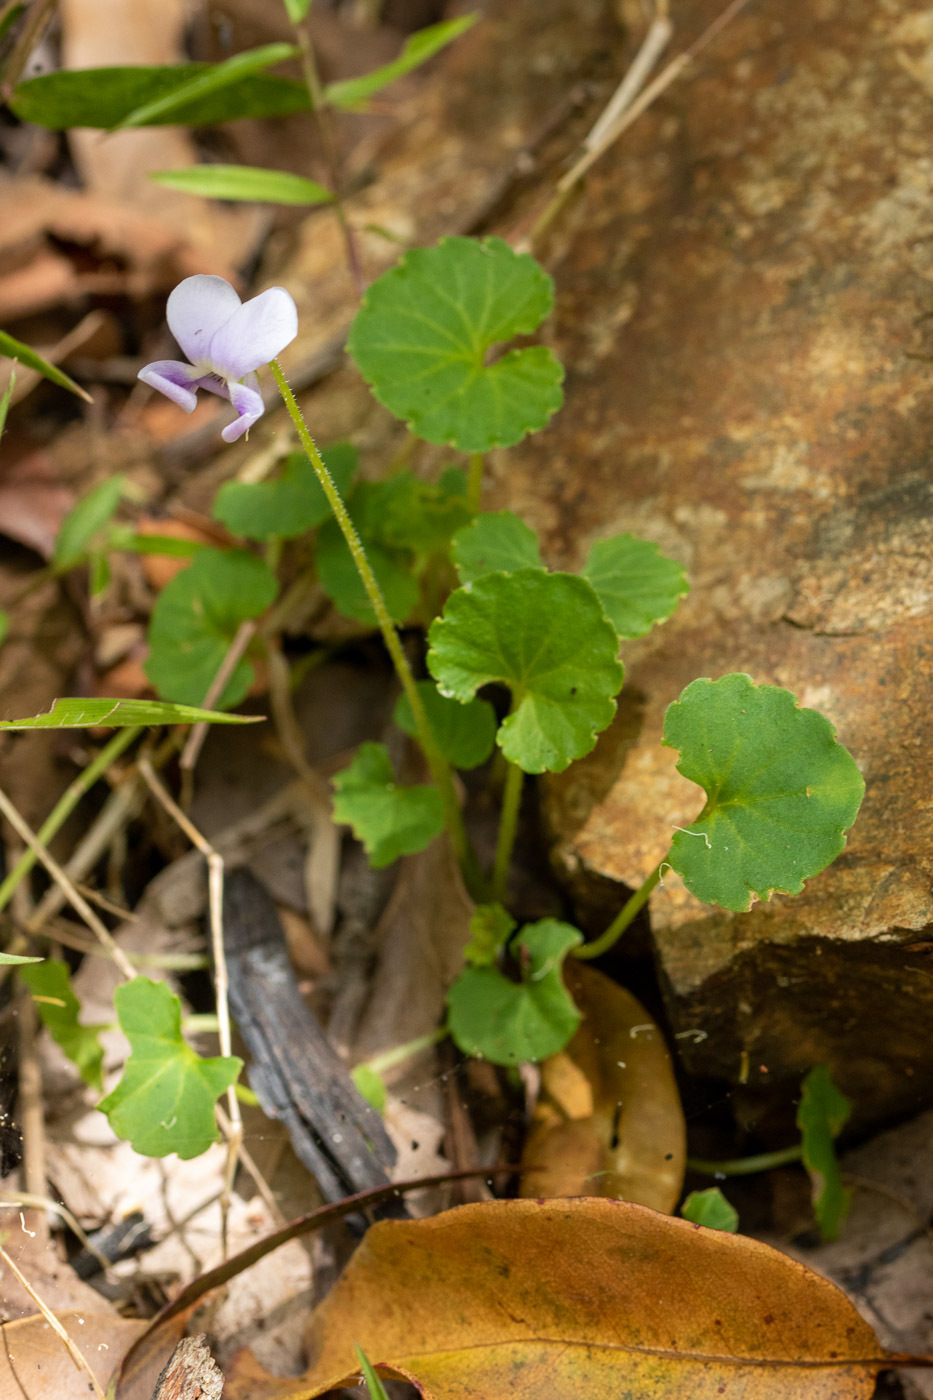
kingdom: Plantae
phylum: Tracheophyta
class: Magnoliopsida
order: Malpighiales
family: Violaceae
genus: Viola
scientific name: Viola banksii
